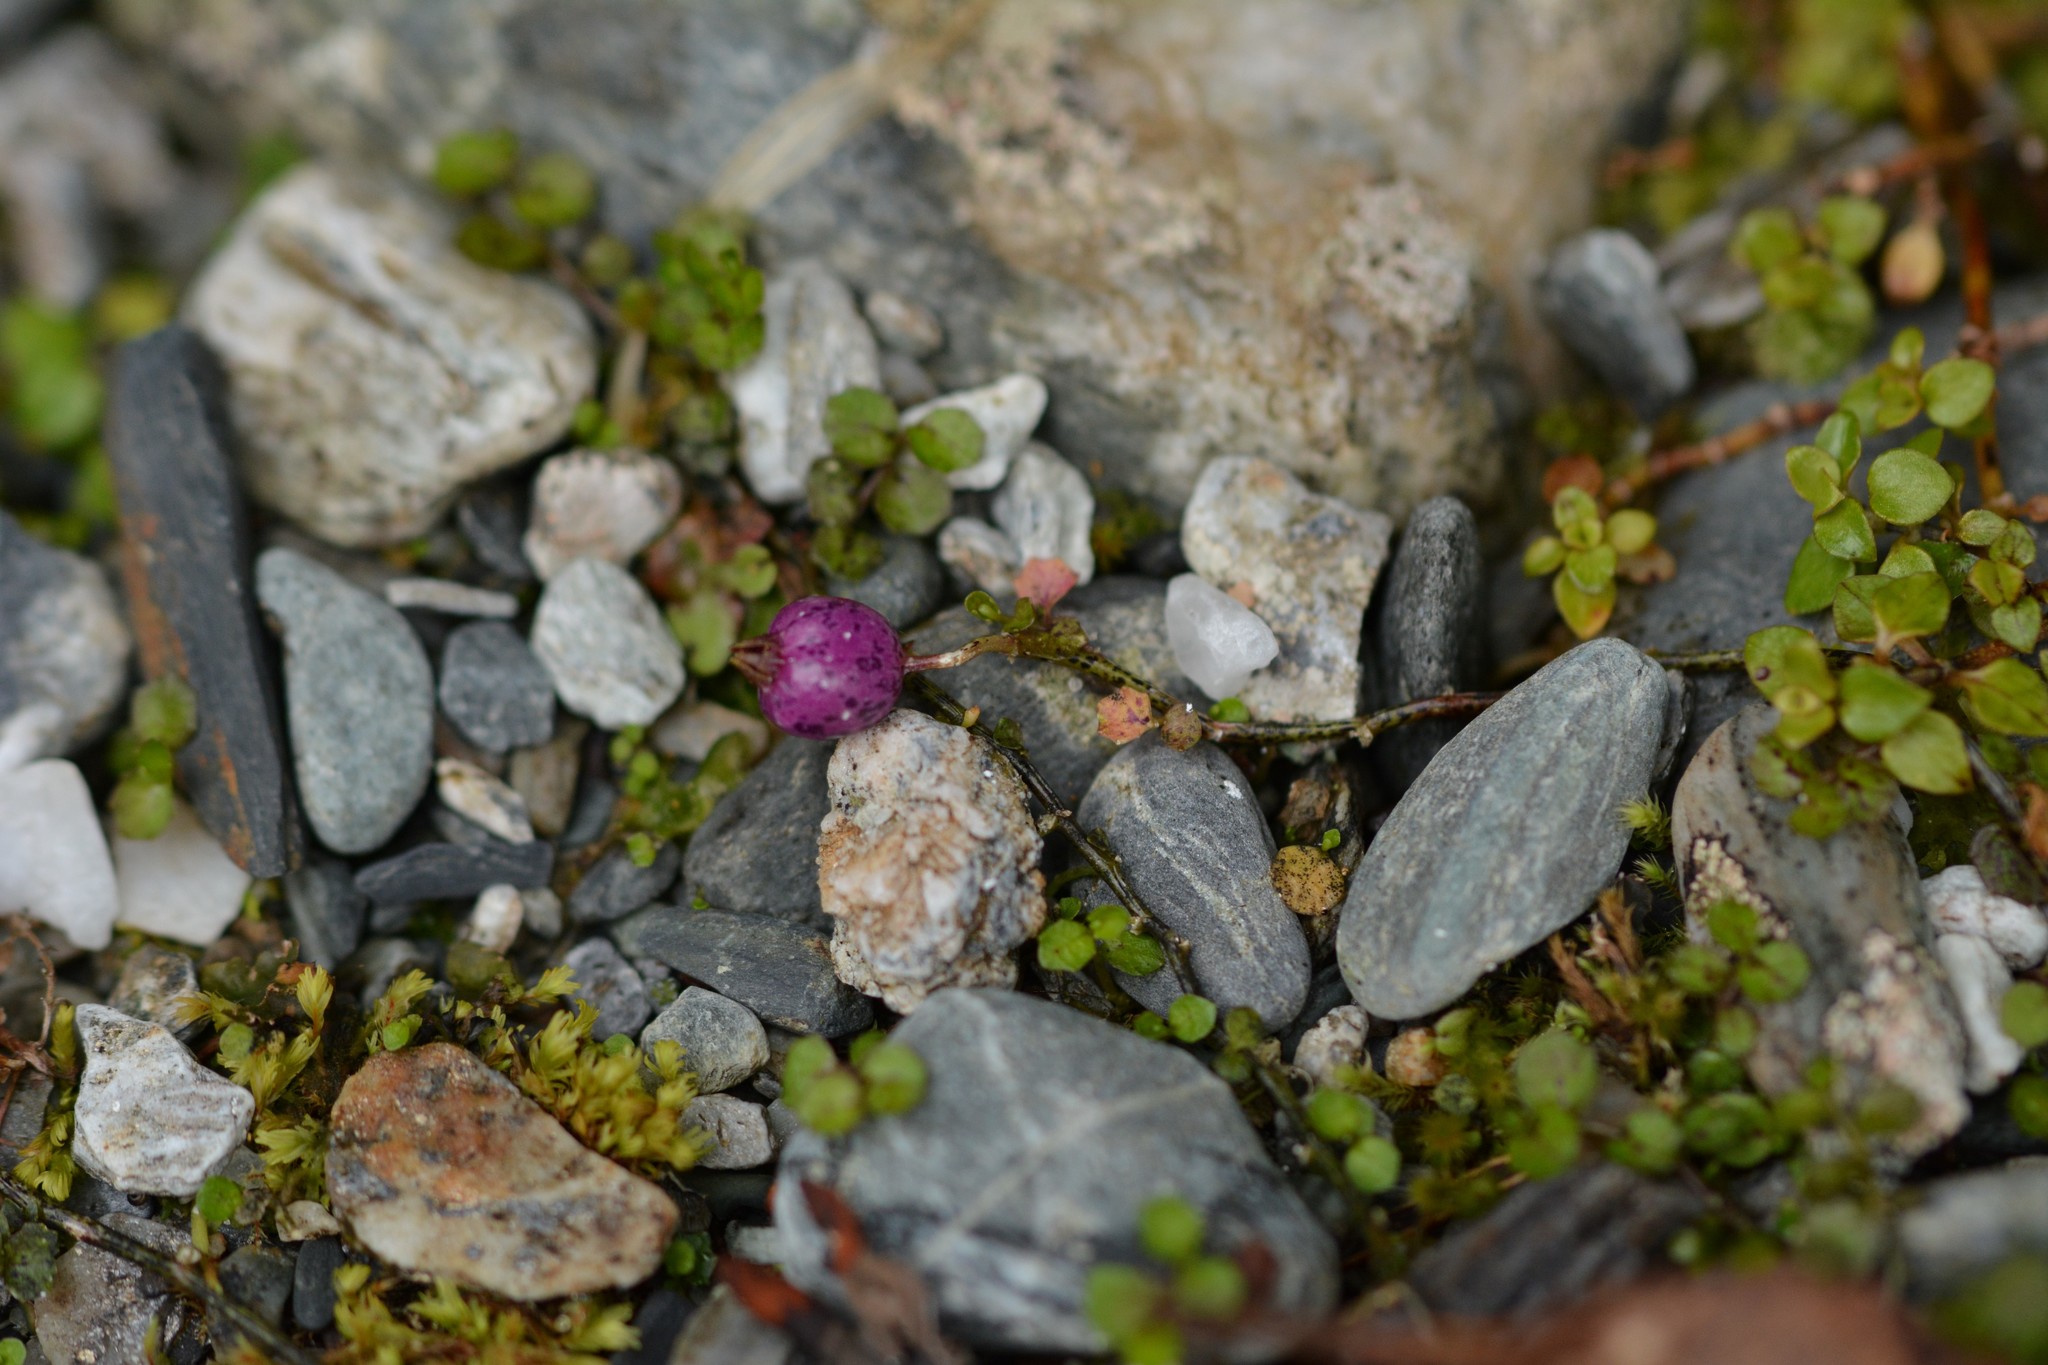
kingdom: Plantae
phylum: Tracheophyta
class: Magnoliopsida
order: Asterales
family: Campanulaceae
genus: Lobelia
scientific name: Lobelia angulata
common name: Lawn lobelia
